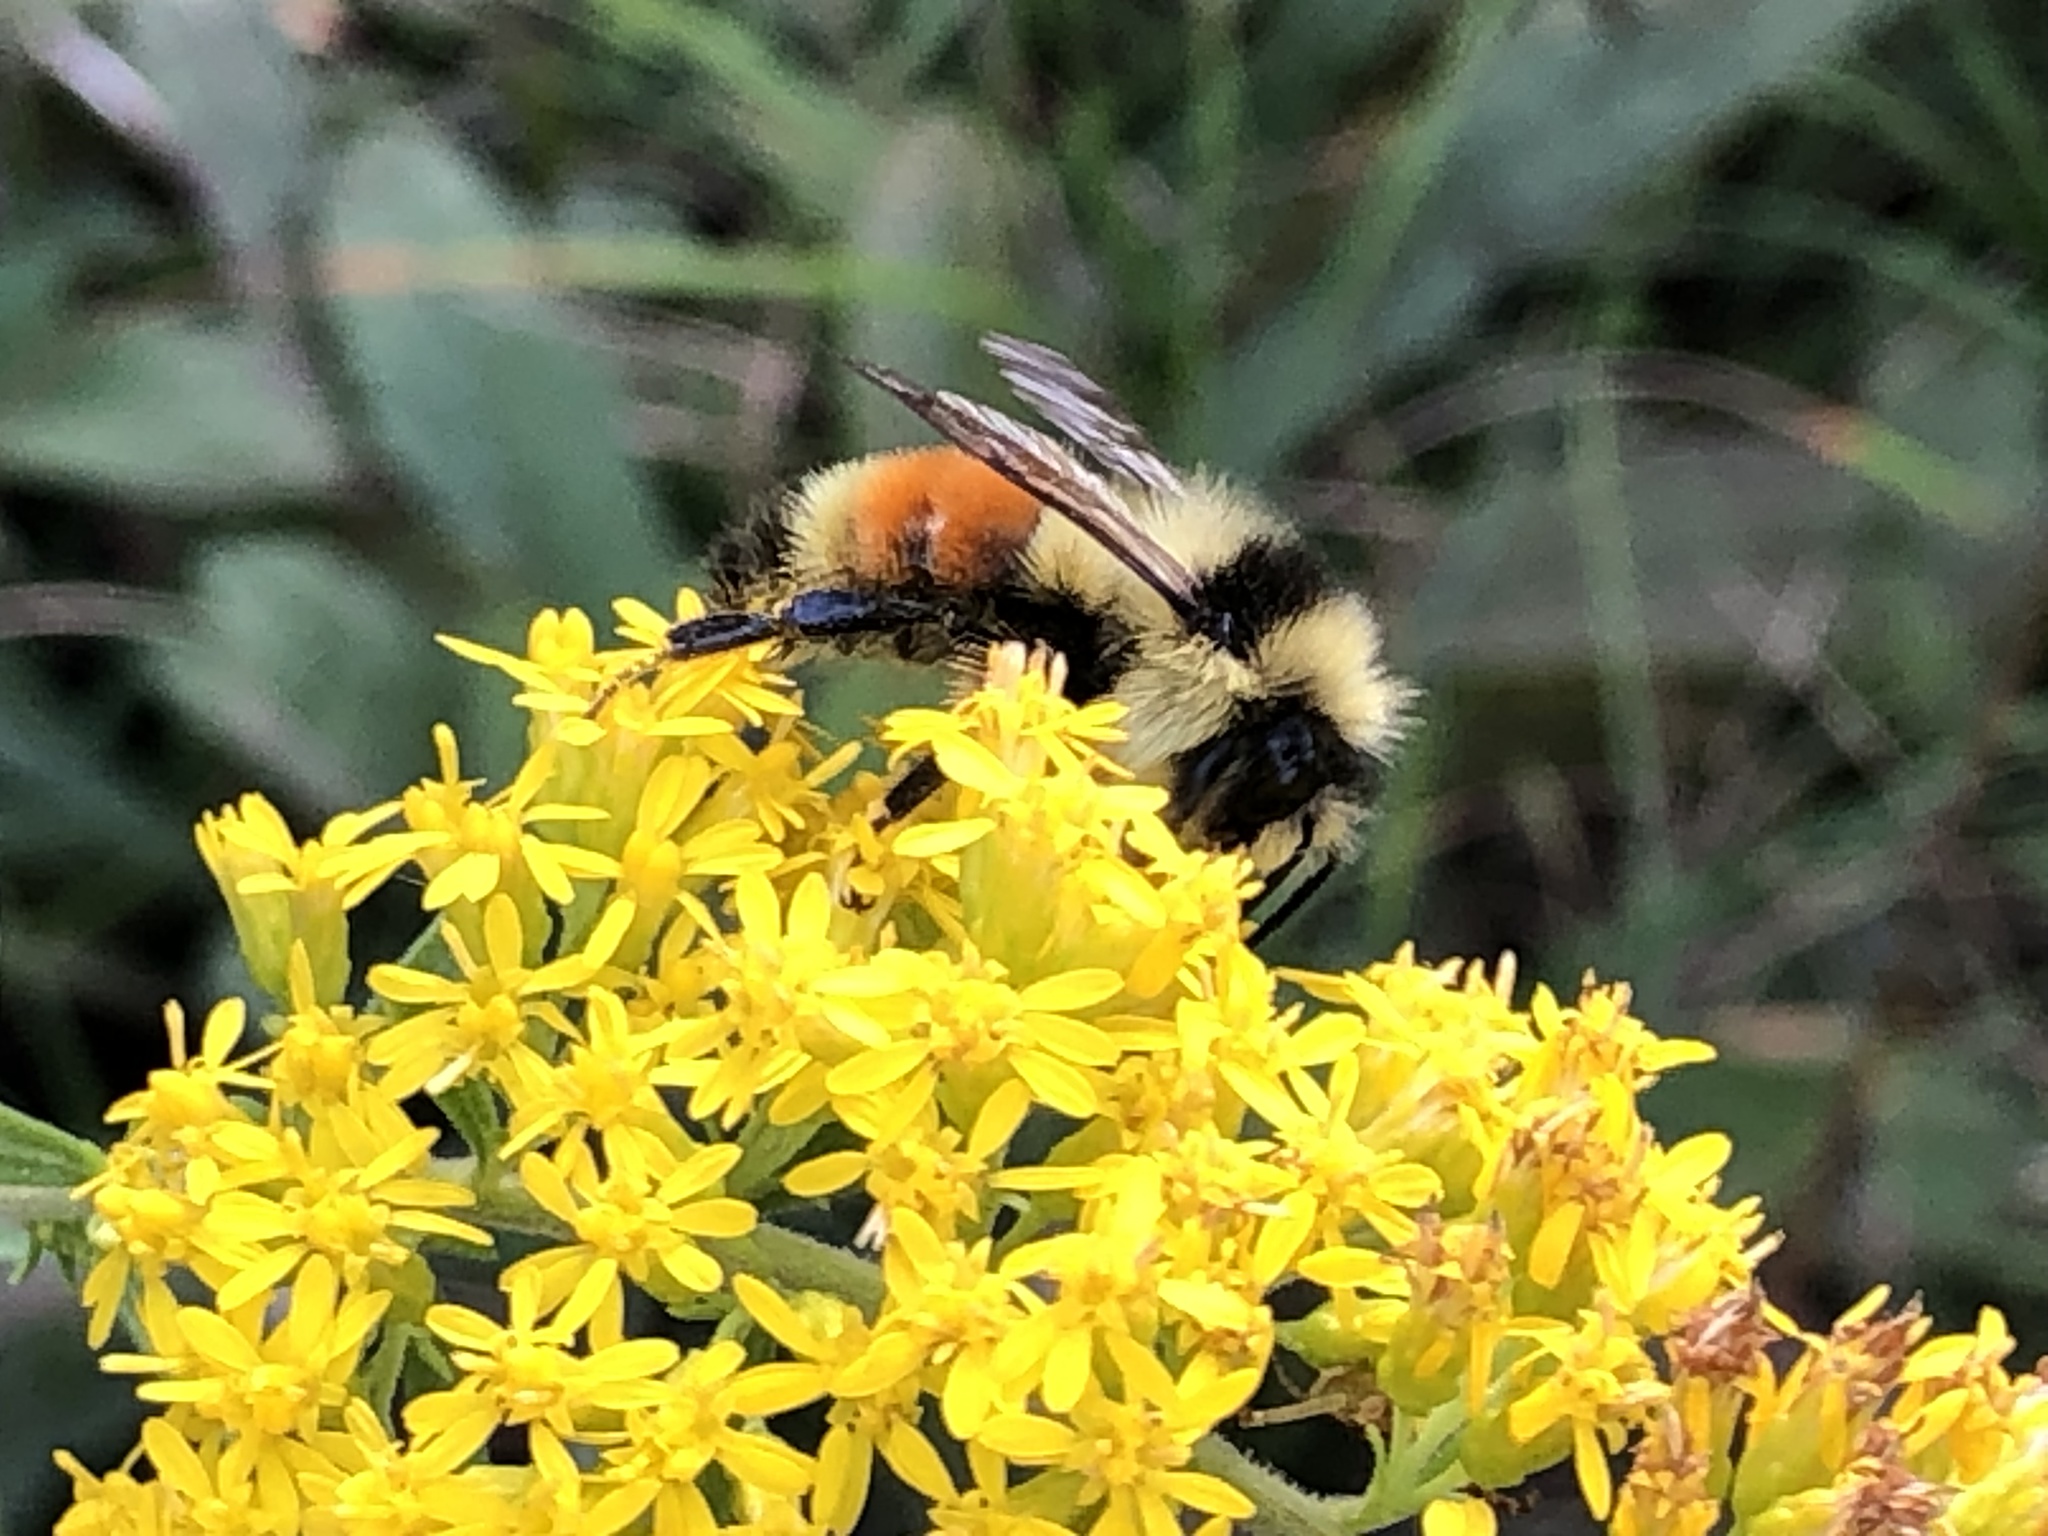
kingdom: Animalia
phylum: Arthropoda
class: Insecta
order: Hymenoptera
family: Apidae
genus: Bombus
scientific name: Bombus ternarius
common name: Tri-colored bumble bee
